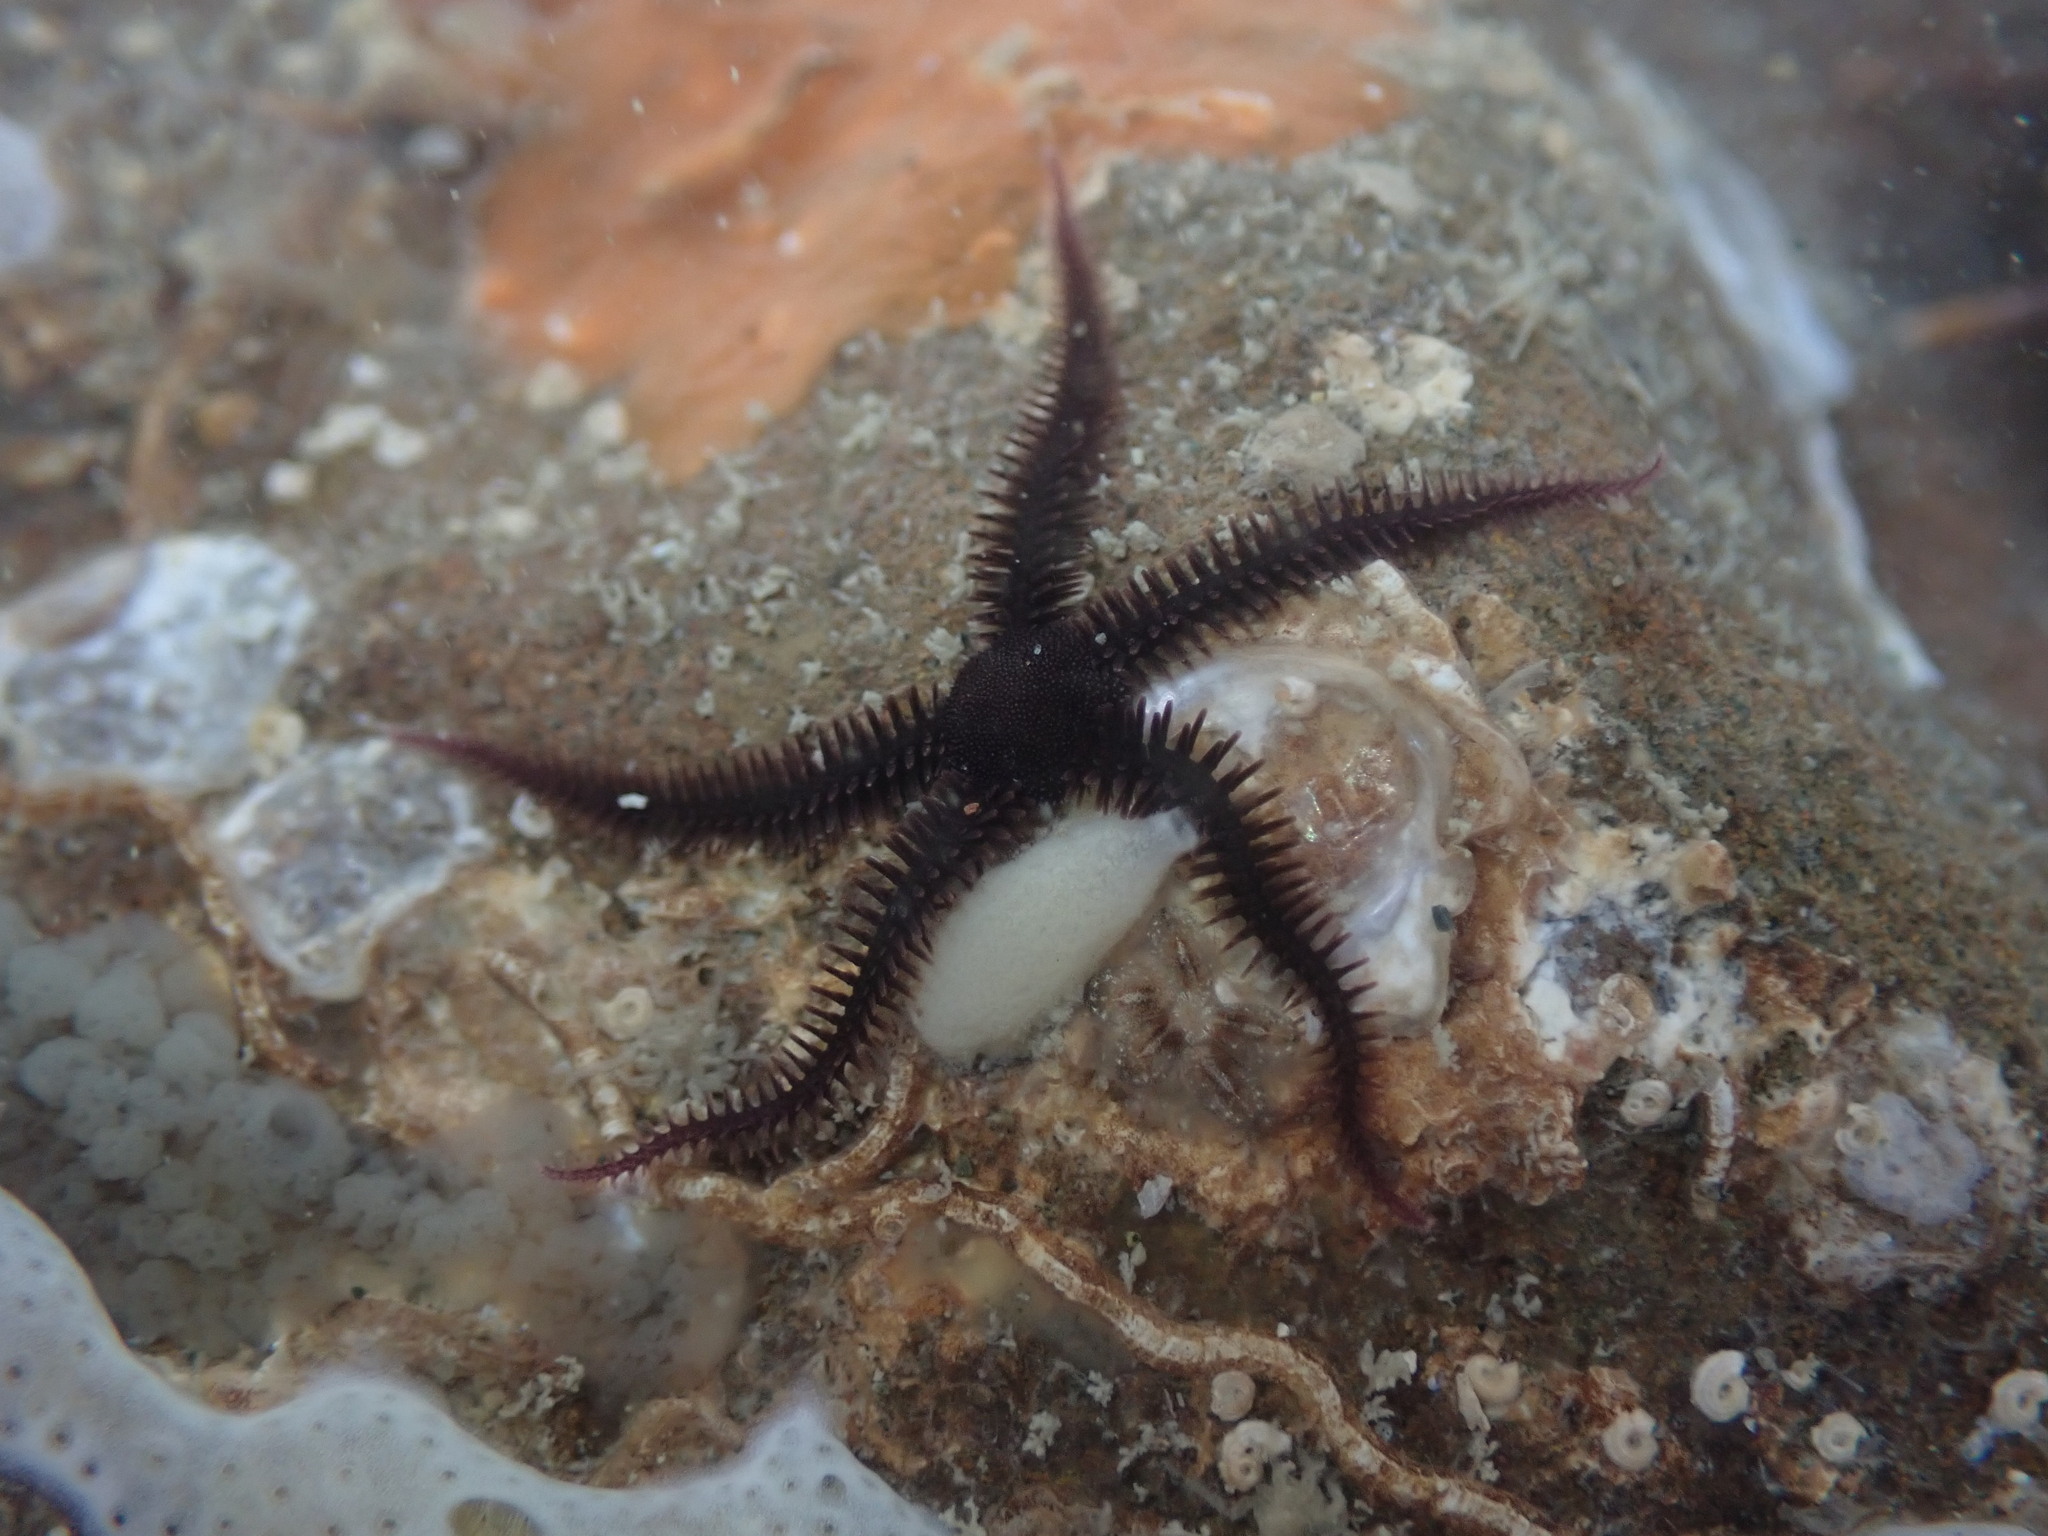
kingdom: Animalia
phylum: Echinodermata
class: Ophiuroidea
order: Ophiacanthida
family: Ophiopteridae
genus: Ophiopteris
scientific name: Ophiopteris antipodum
